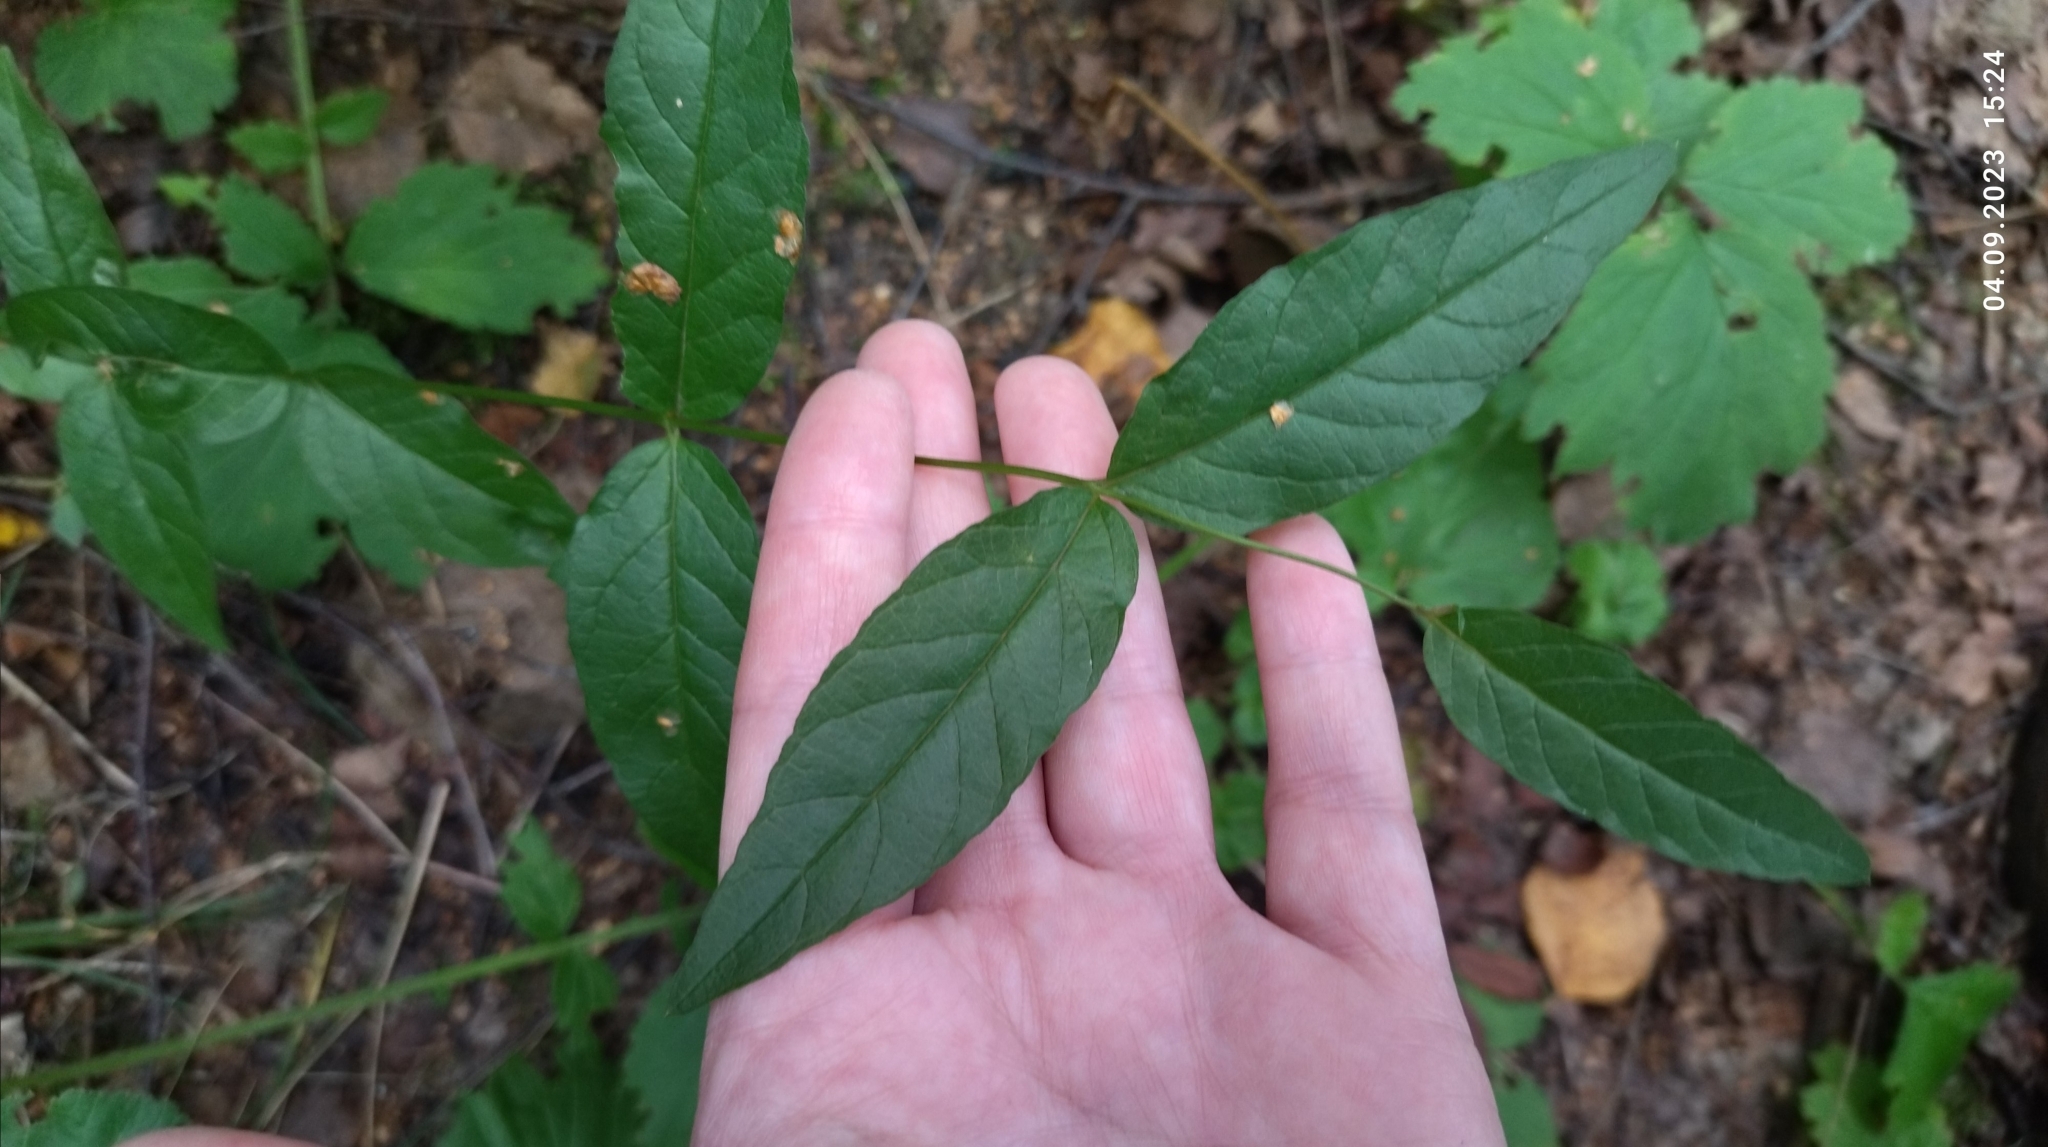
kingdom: Plantae
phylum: Tracheophyta
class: Magnoliopsida
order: Ericales
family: Primulaceae
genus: Lysimachia
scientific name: Lysimachia vulgaris
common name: Yellow loosestrife
